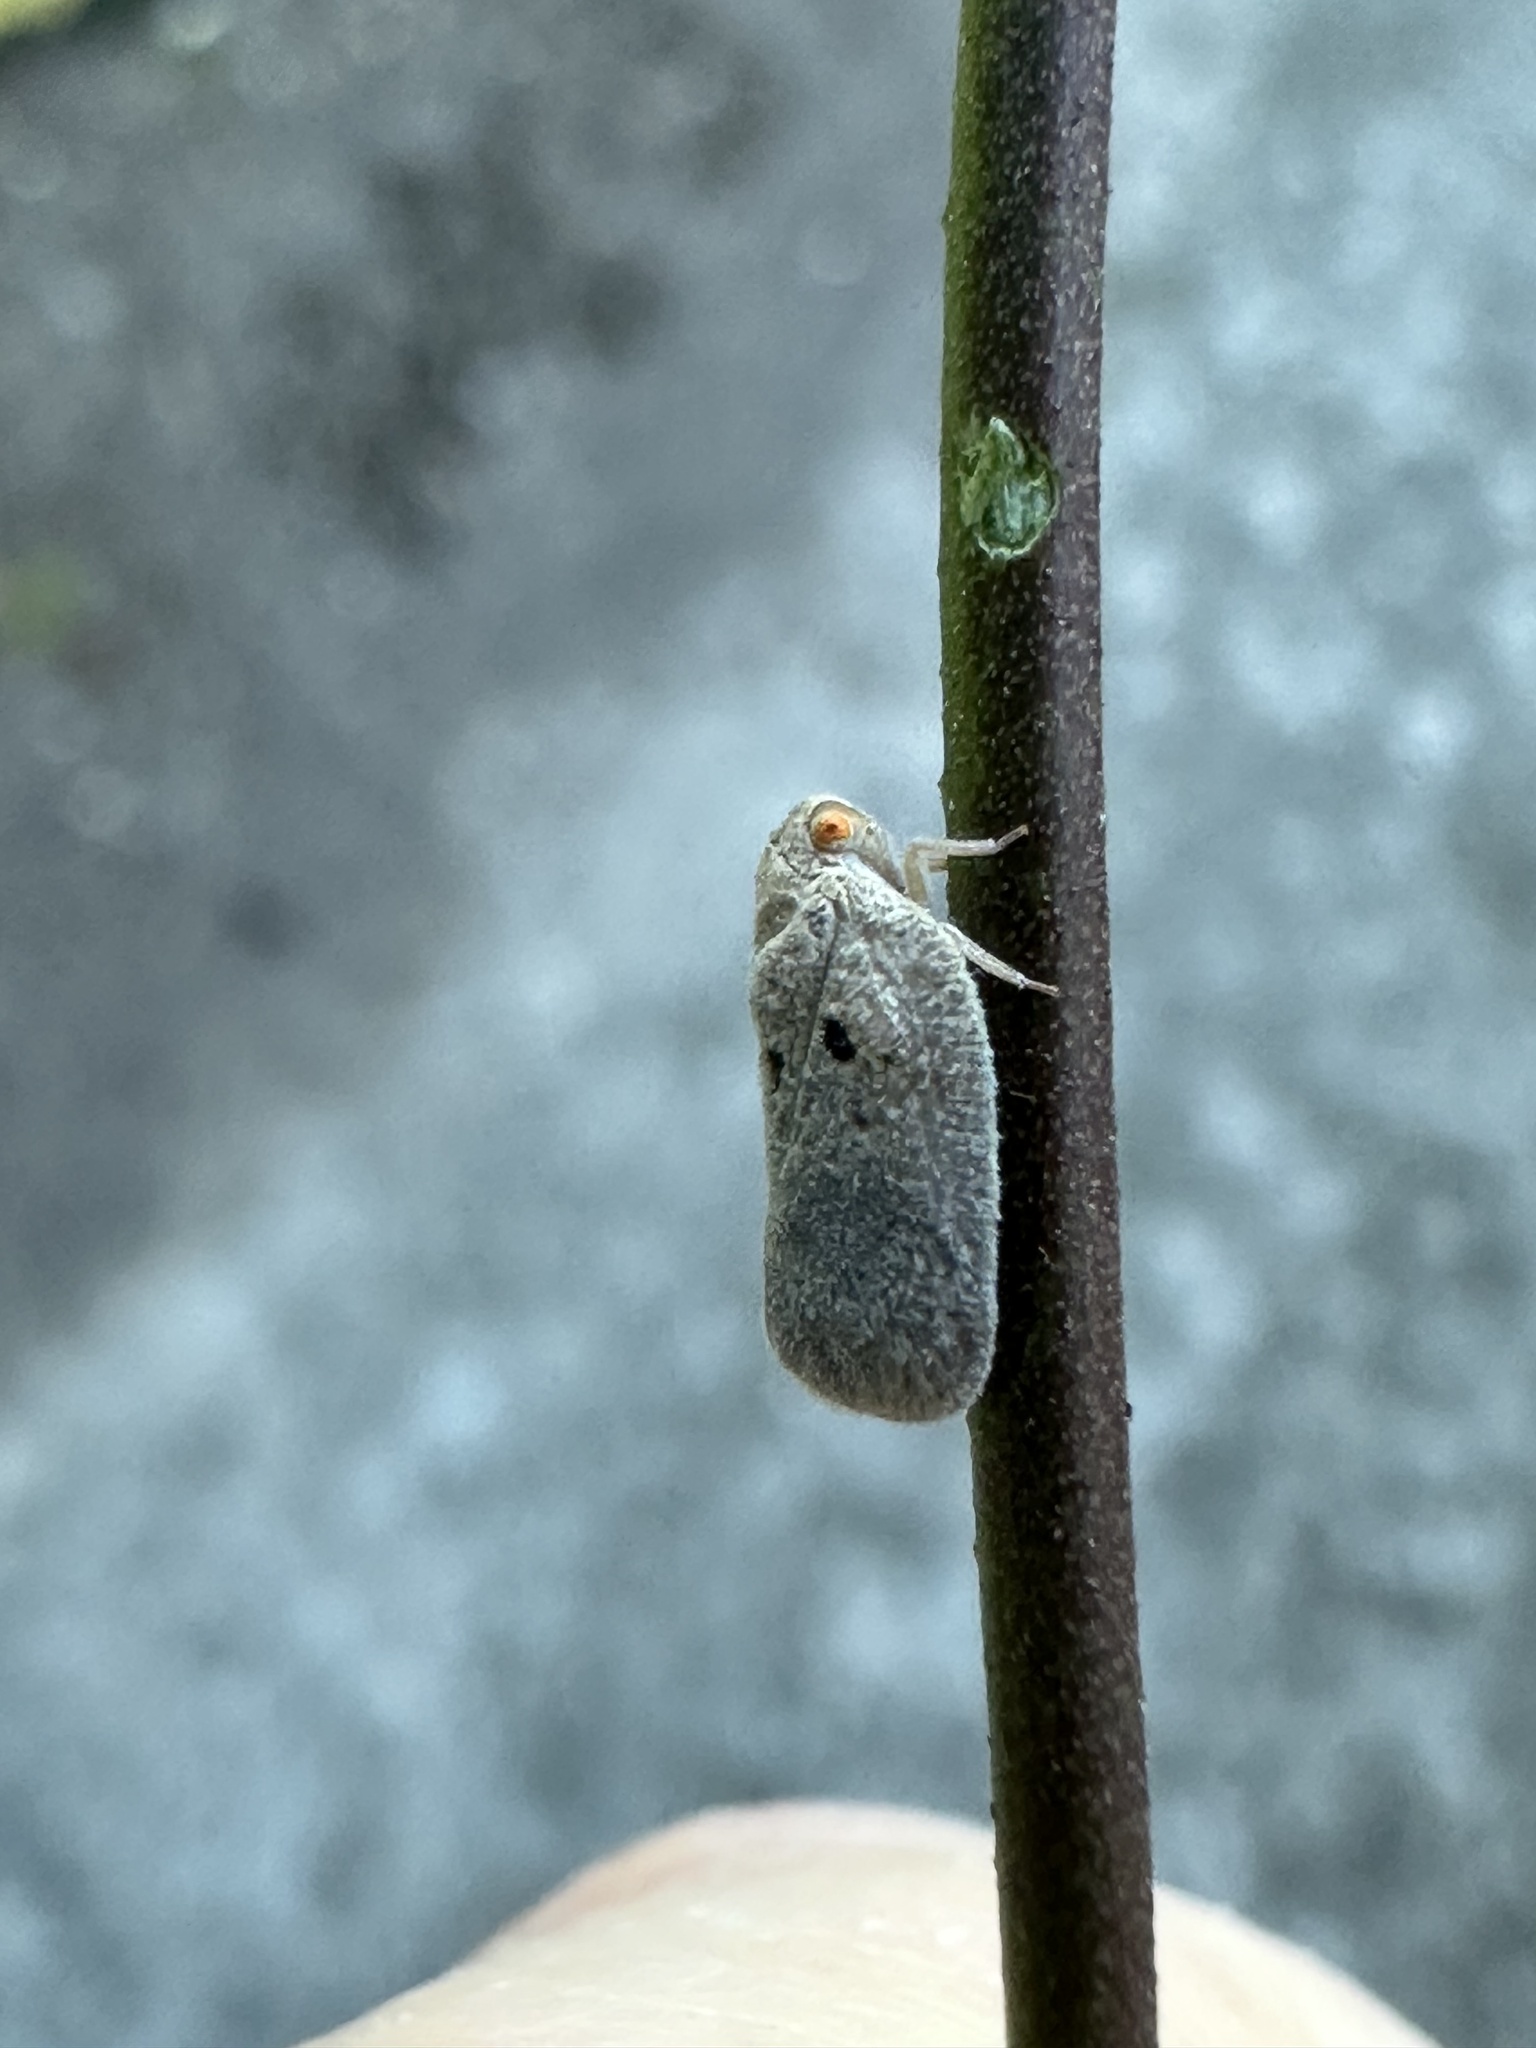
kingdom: Animalia
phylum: Arthropoda
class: Insecta
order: Hemiptera
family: Flatidae
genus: Melormenis
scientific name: Melormenis basalis
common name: Puerto rican planthopper
